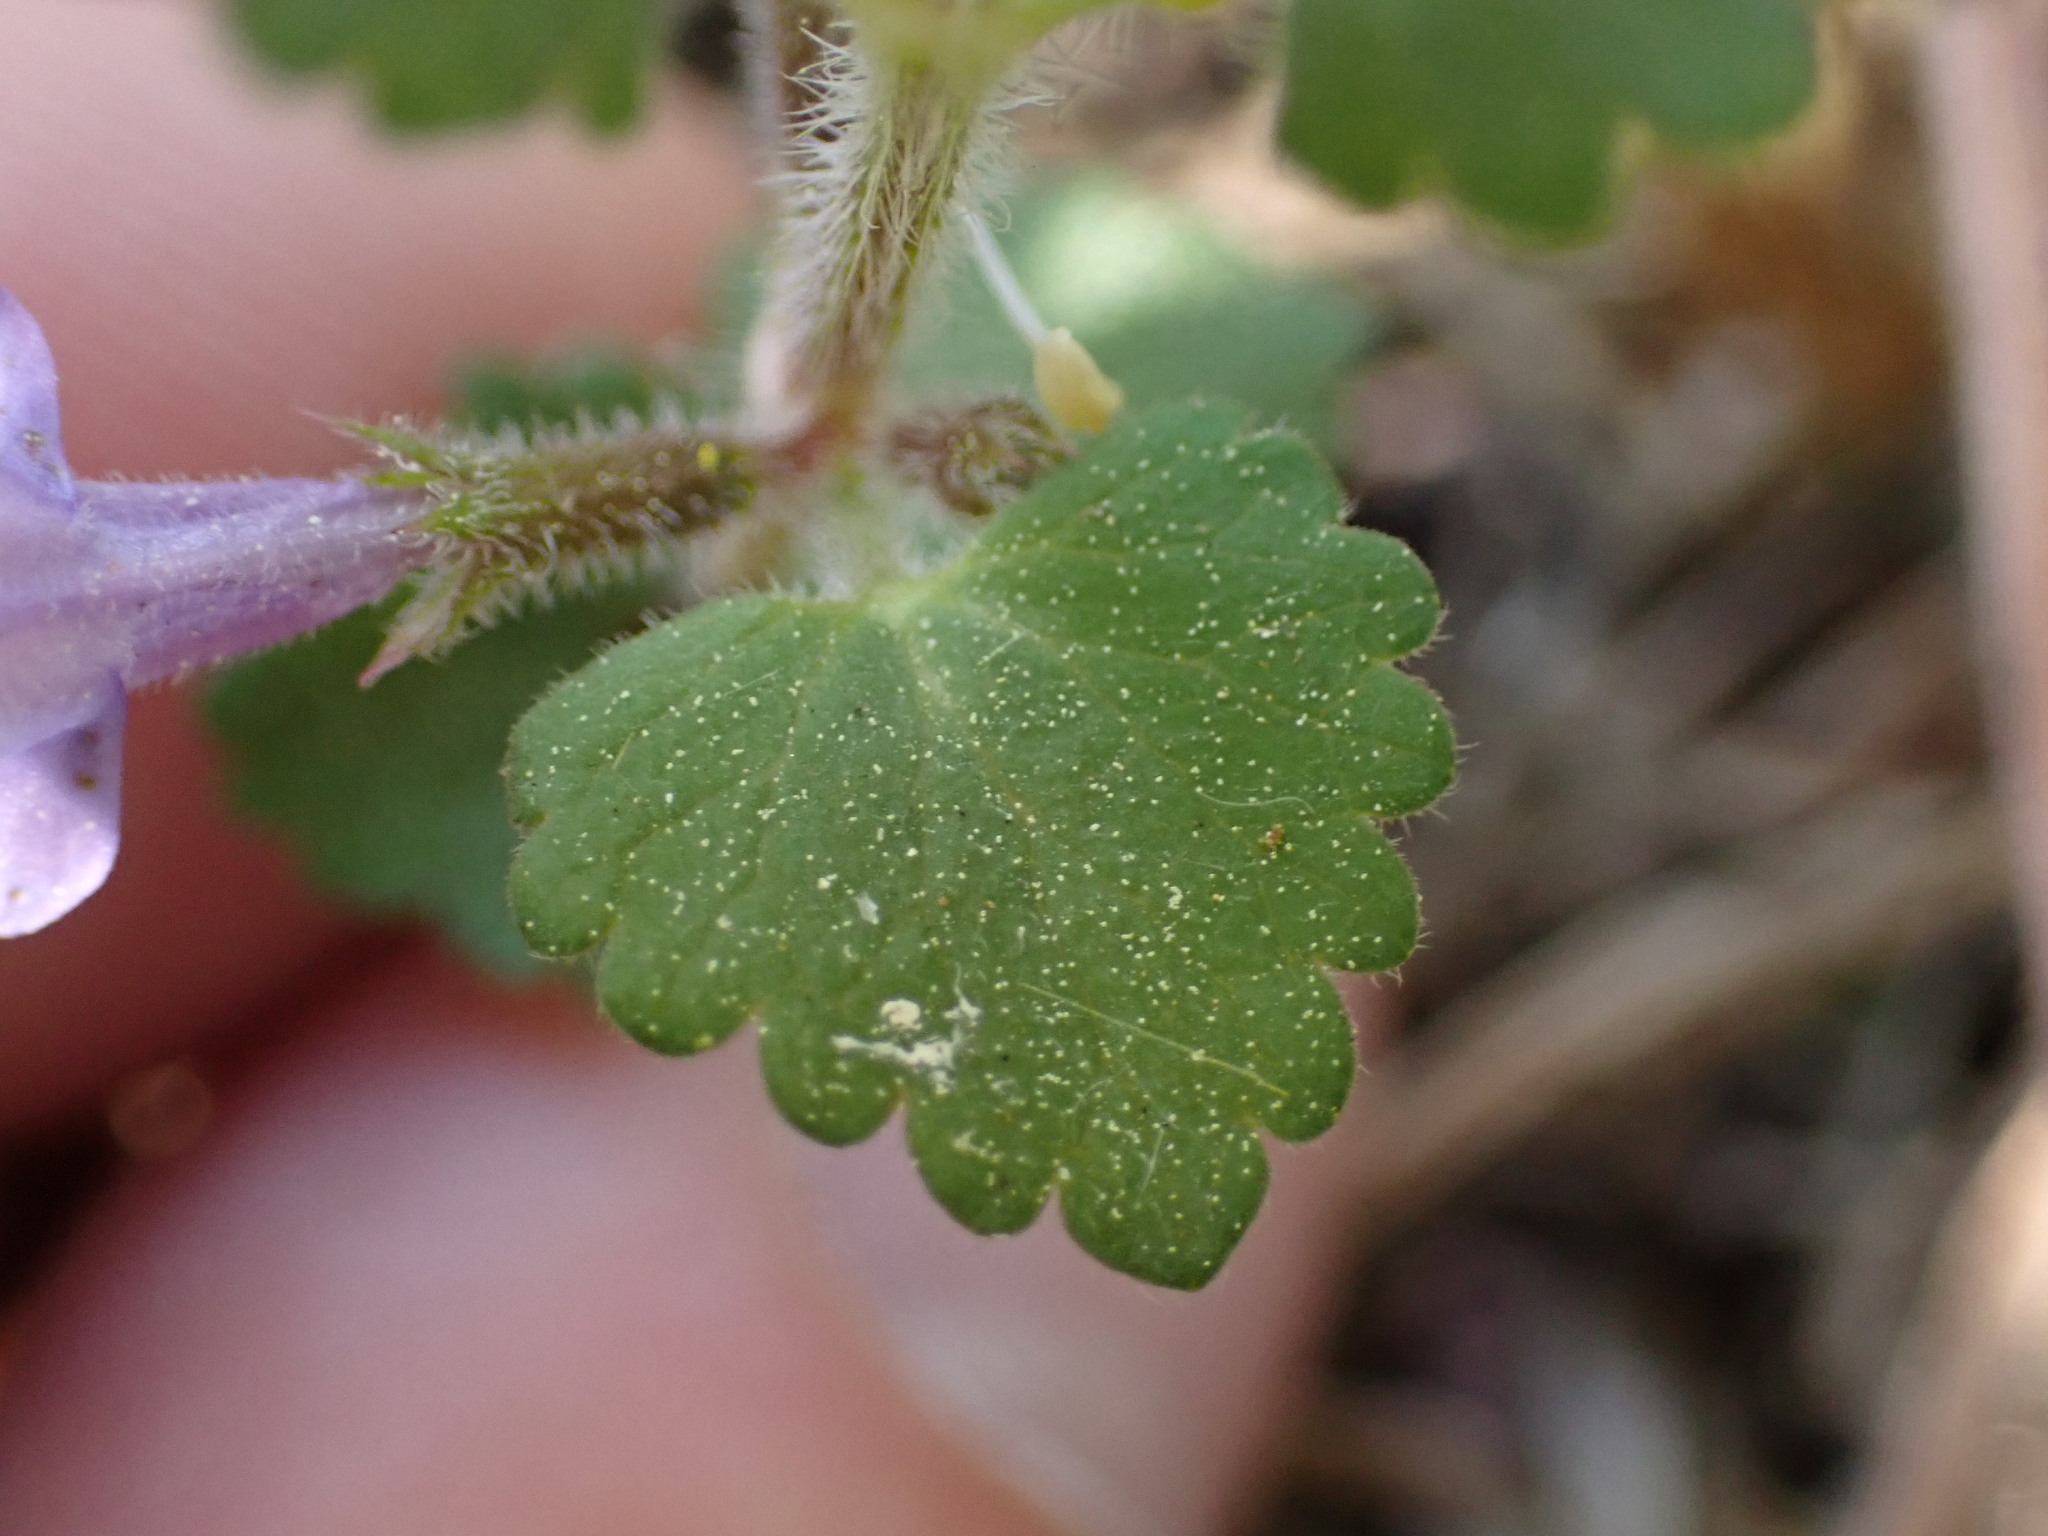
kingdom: Plantae
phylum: Tracheophyta
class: Magnoliopsida
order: Lamiales
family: Lamiaceae
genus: Glechoma
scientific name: Glechoma hederacea
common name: Ground ivy
